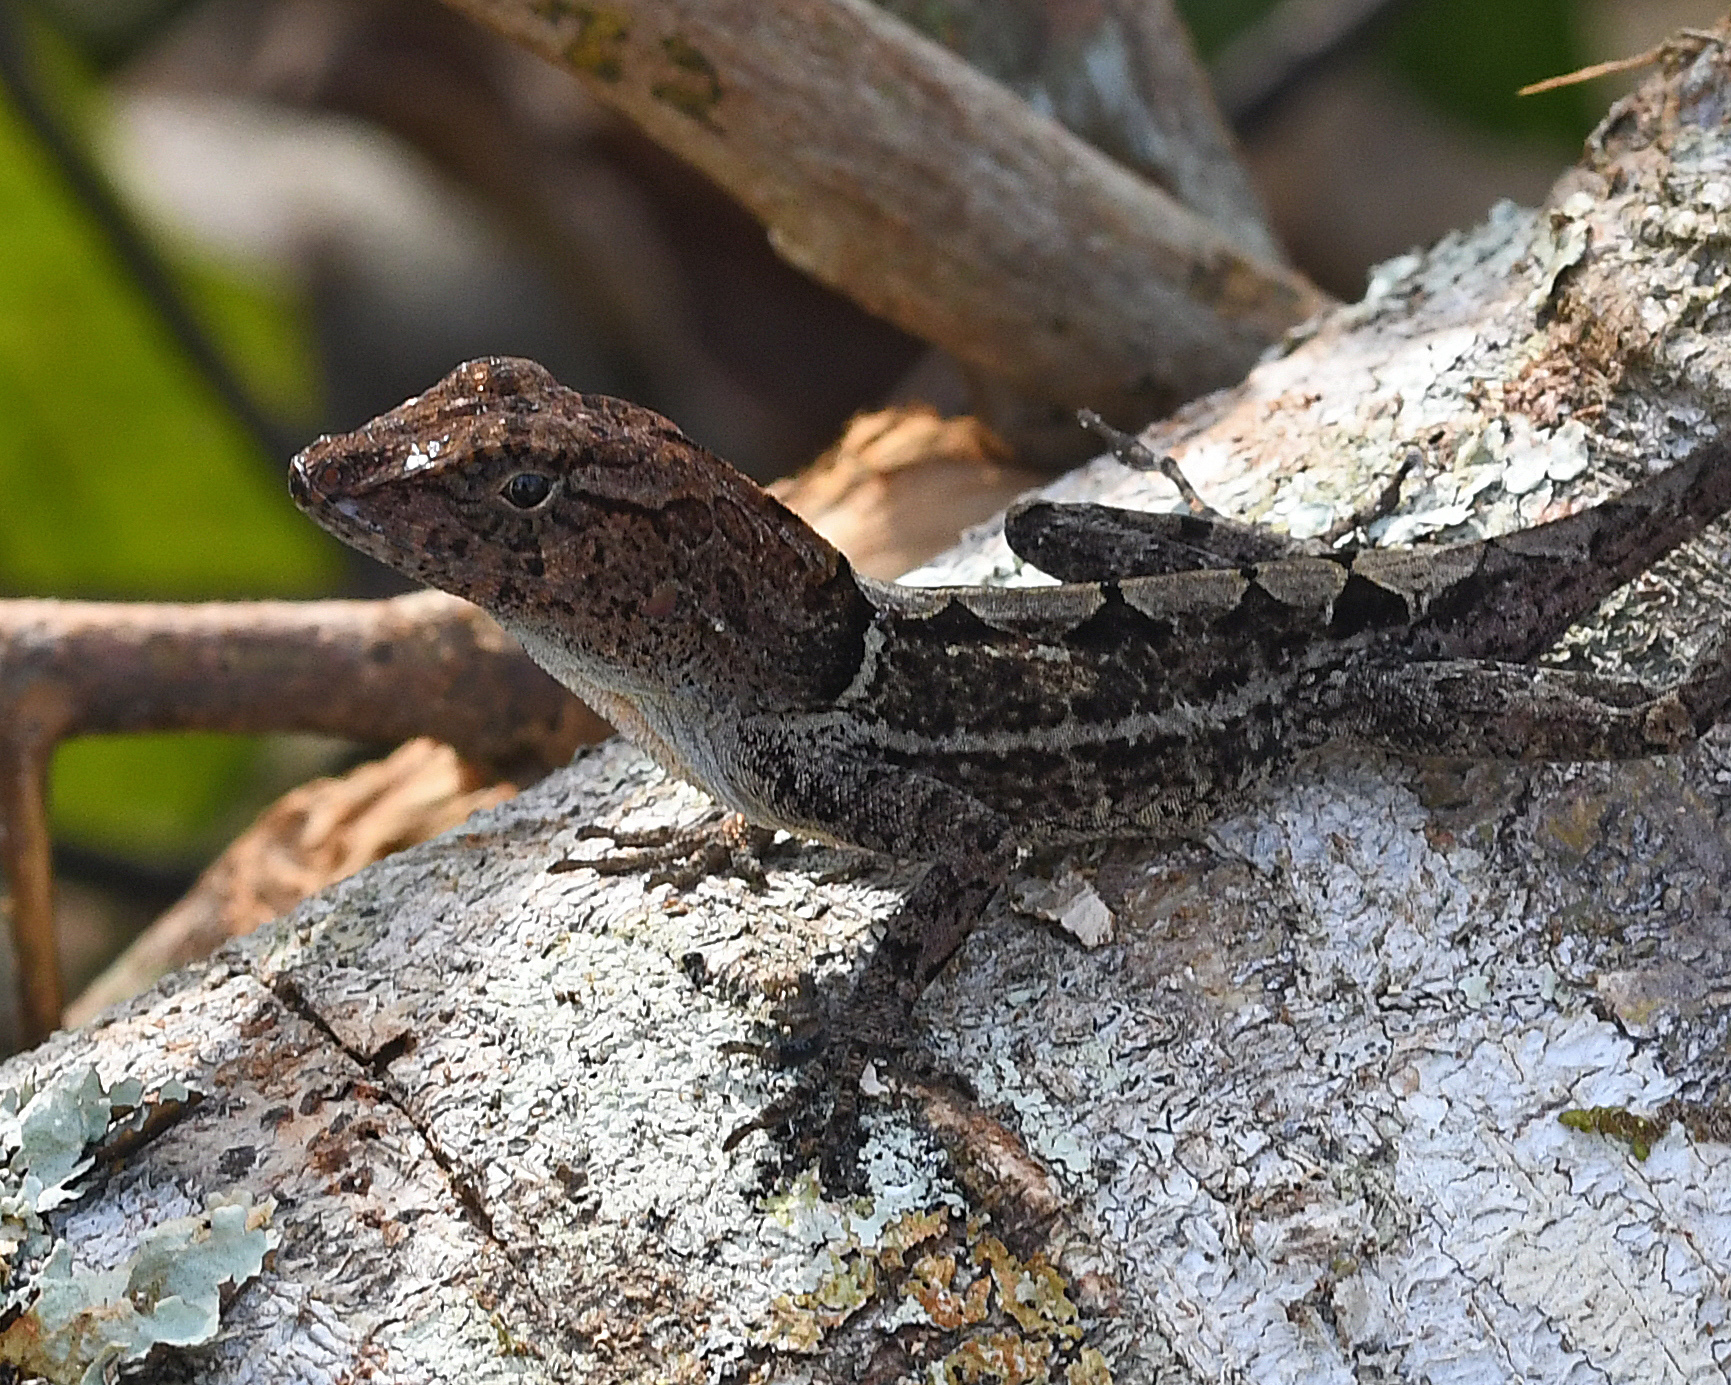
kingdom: Animalia
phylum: Chordata
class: Squamata
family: Dactyloidae
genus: Anolis
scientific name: Anolis aridius
